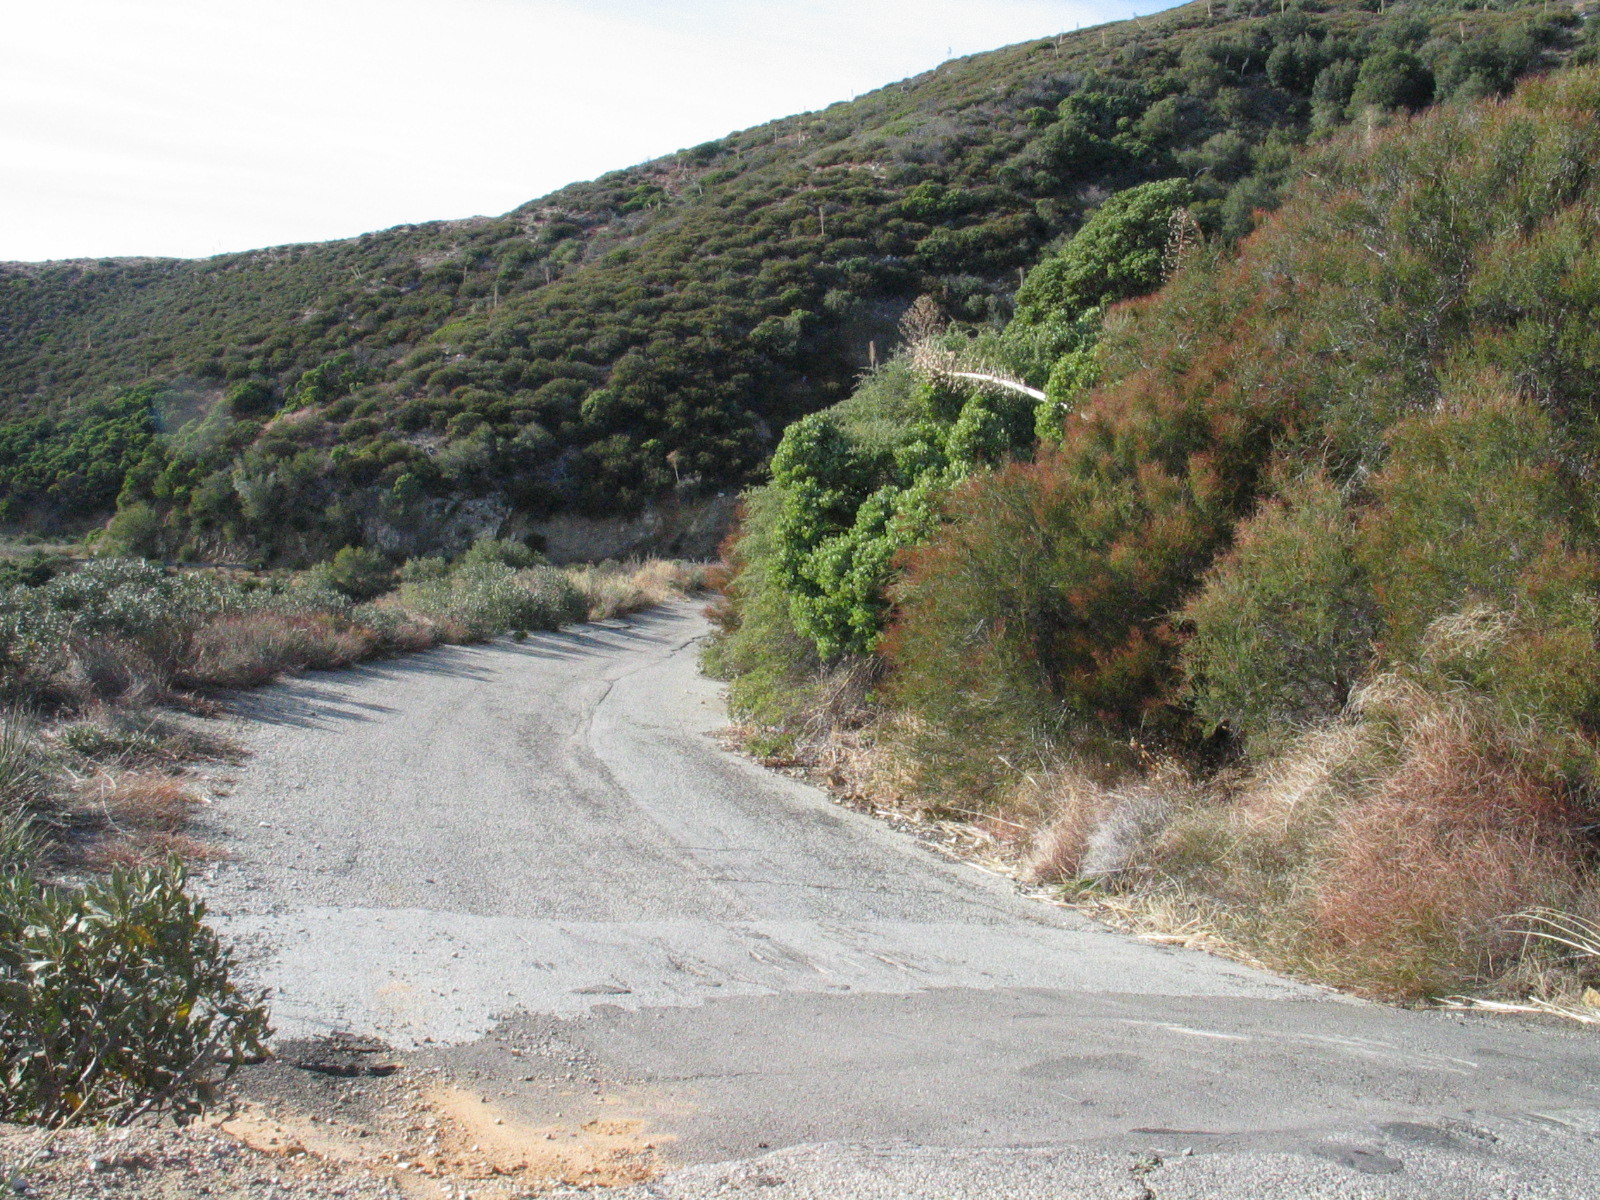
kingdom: Plantae
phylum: Tracheophyta
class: Magnoliopsida
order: Fabales
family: Fabaceae
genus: Acmispon
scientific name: Acmispon glaber
